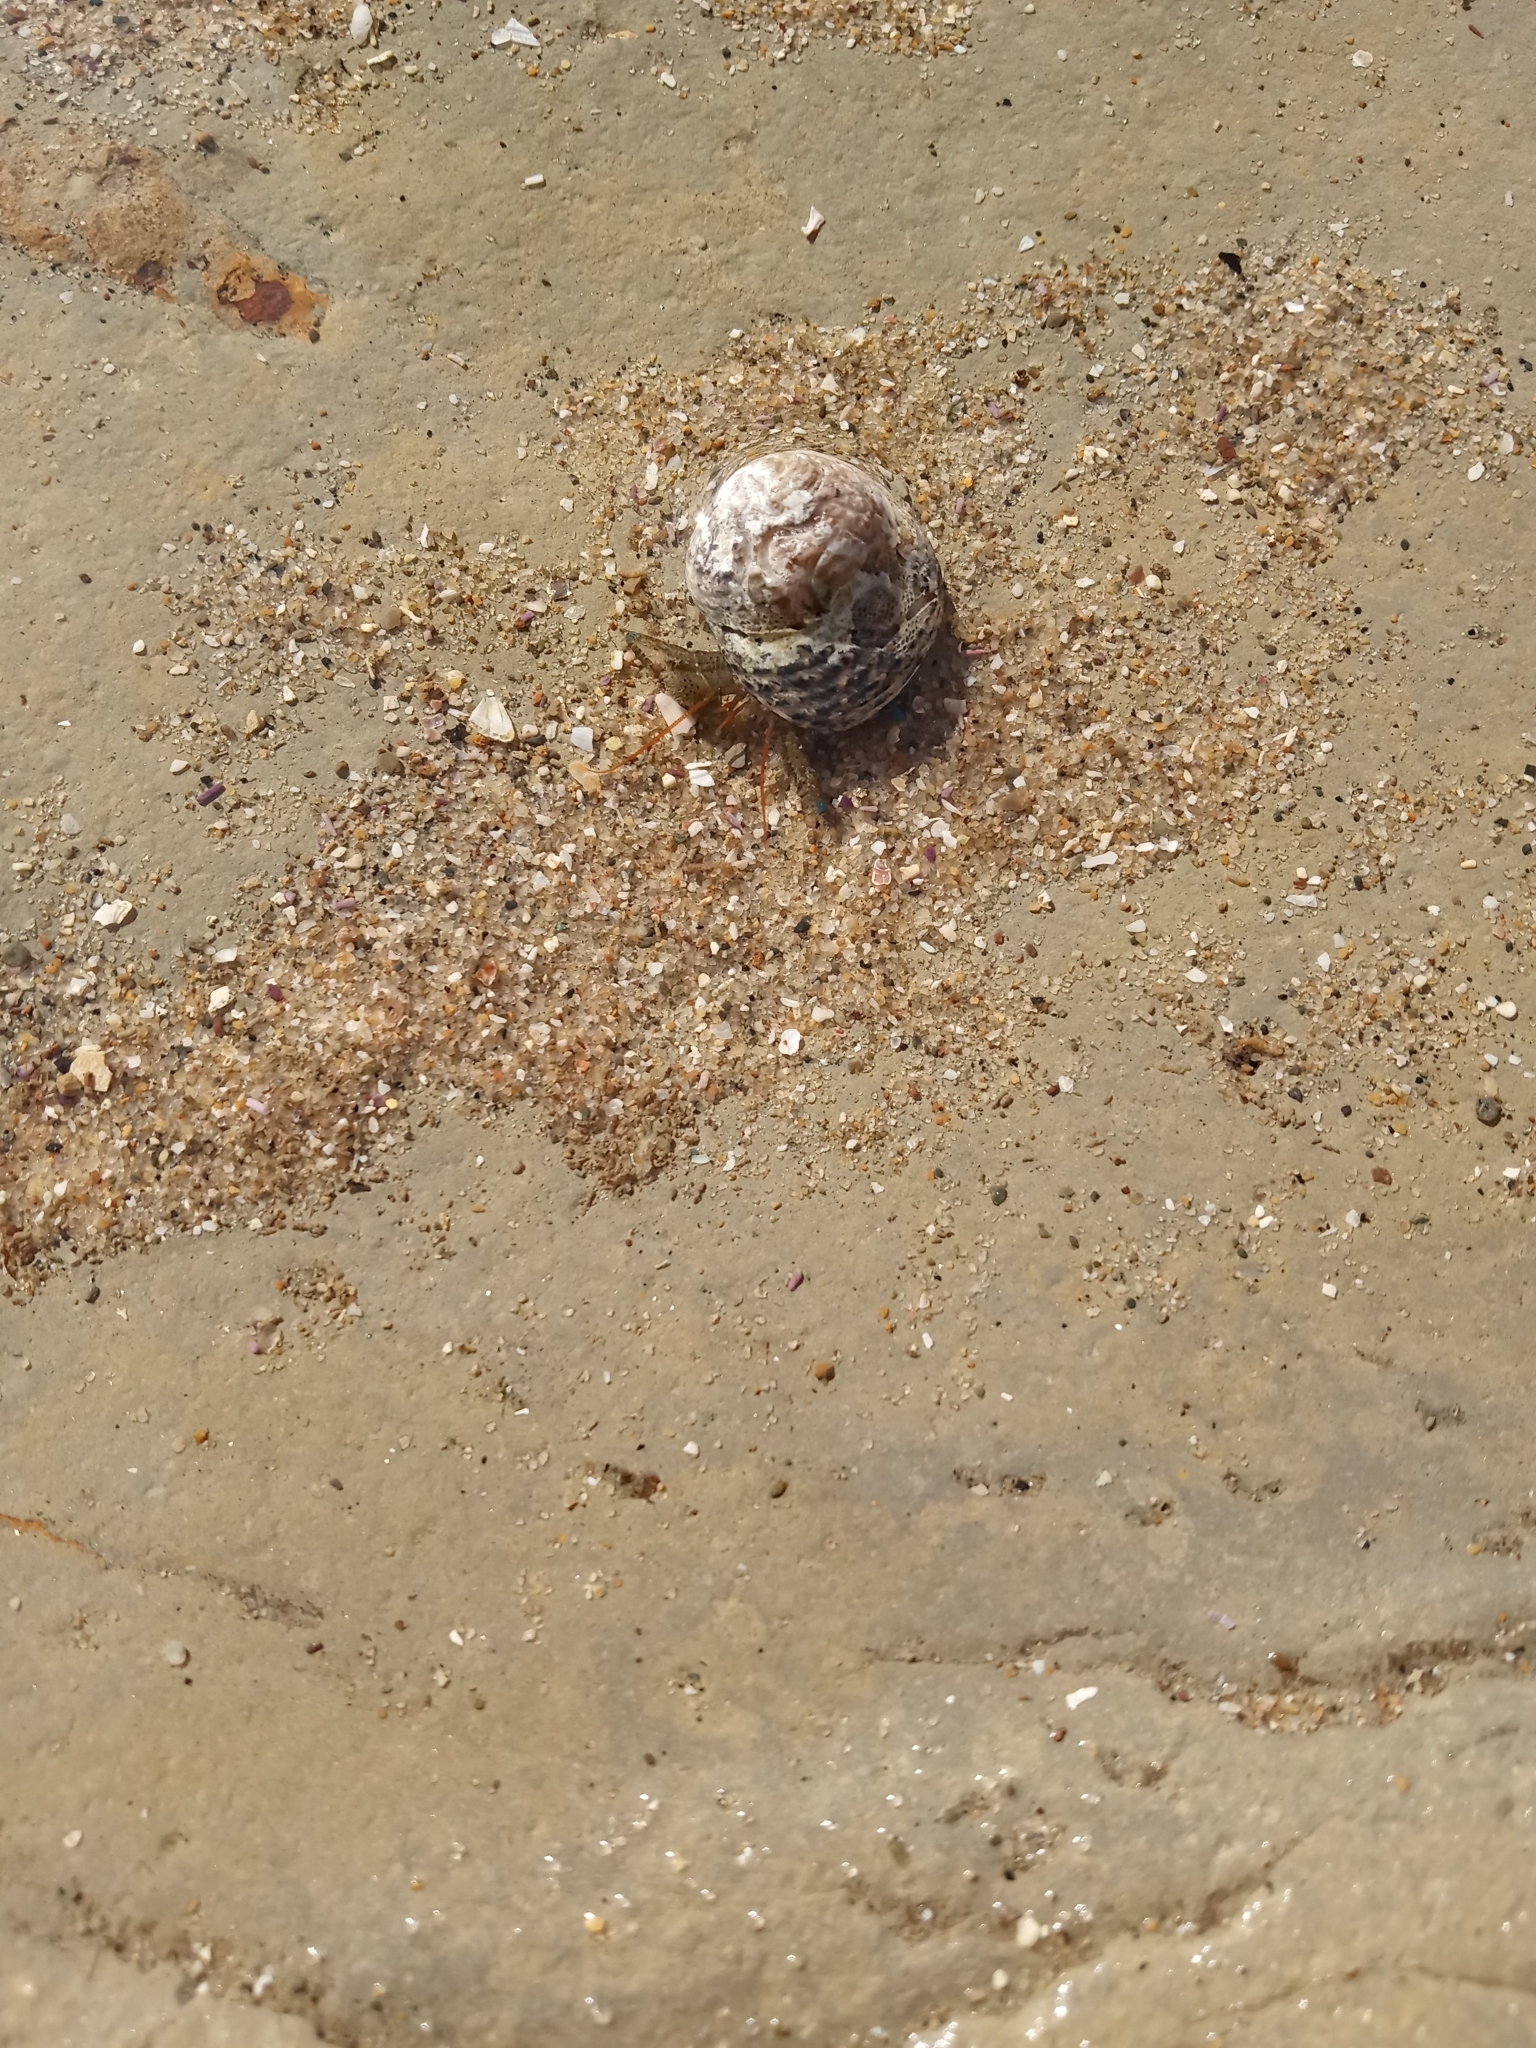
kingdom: Animalia
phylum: Arthropoda
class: Malacostraca
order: Decapoda
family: Paguridae
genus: Pagurus
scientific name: Pagurus samuelis
